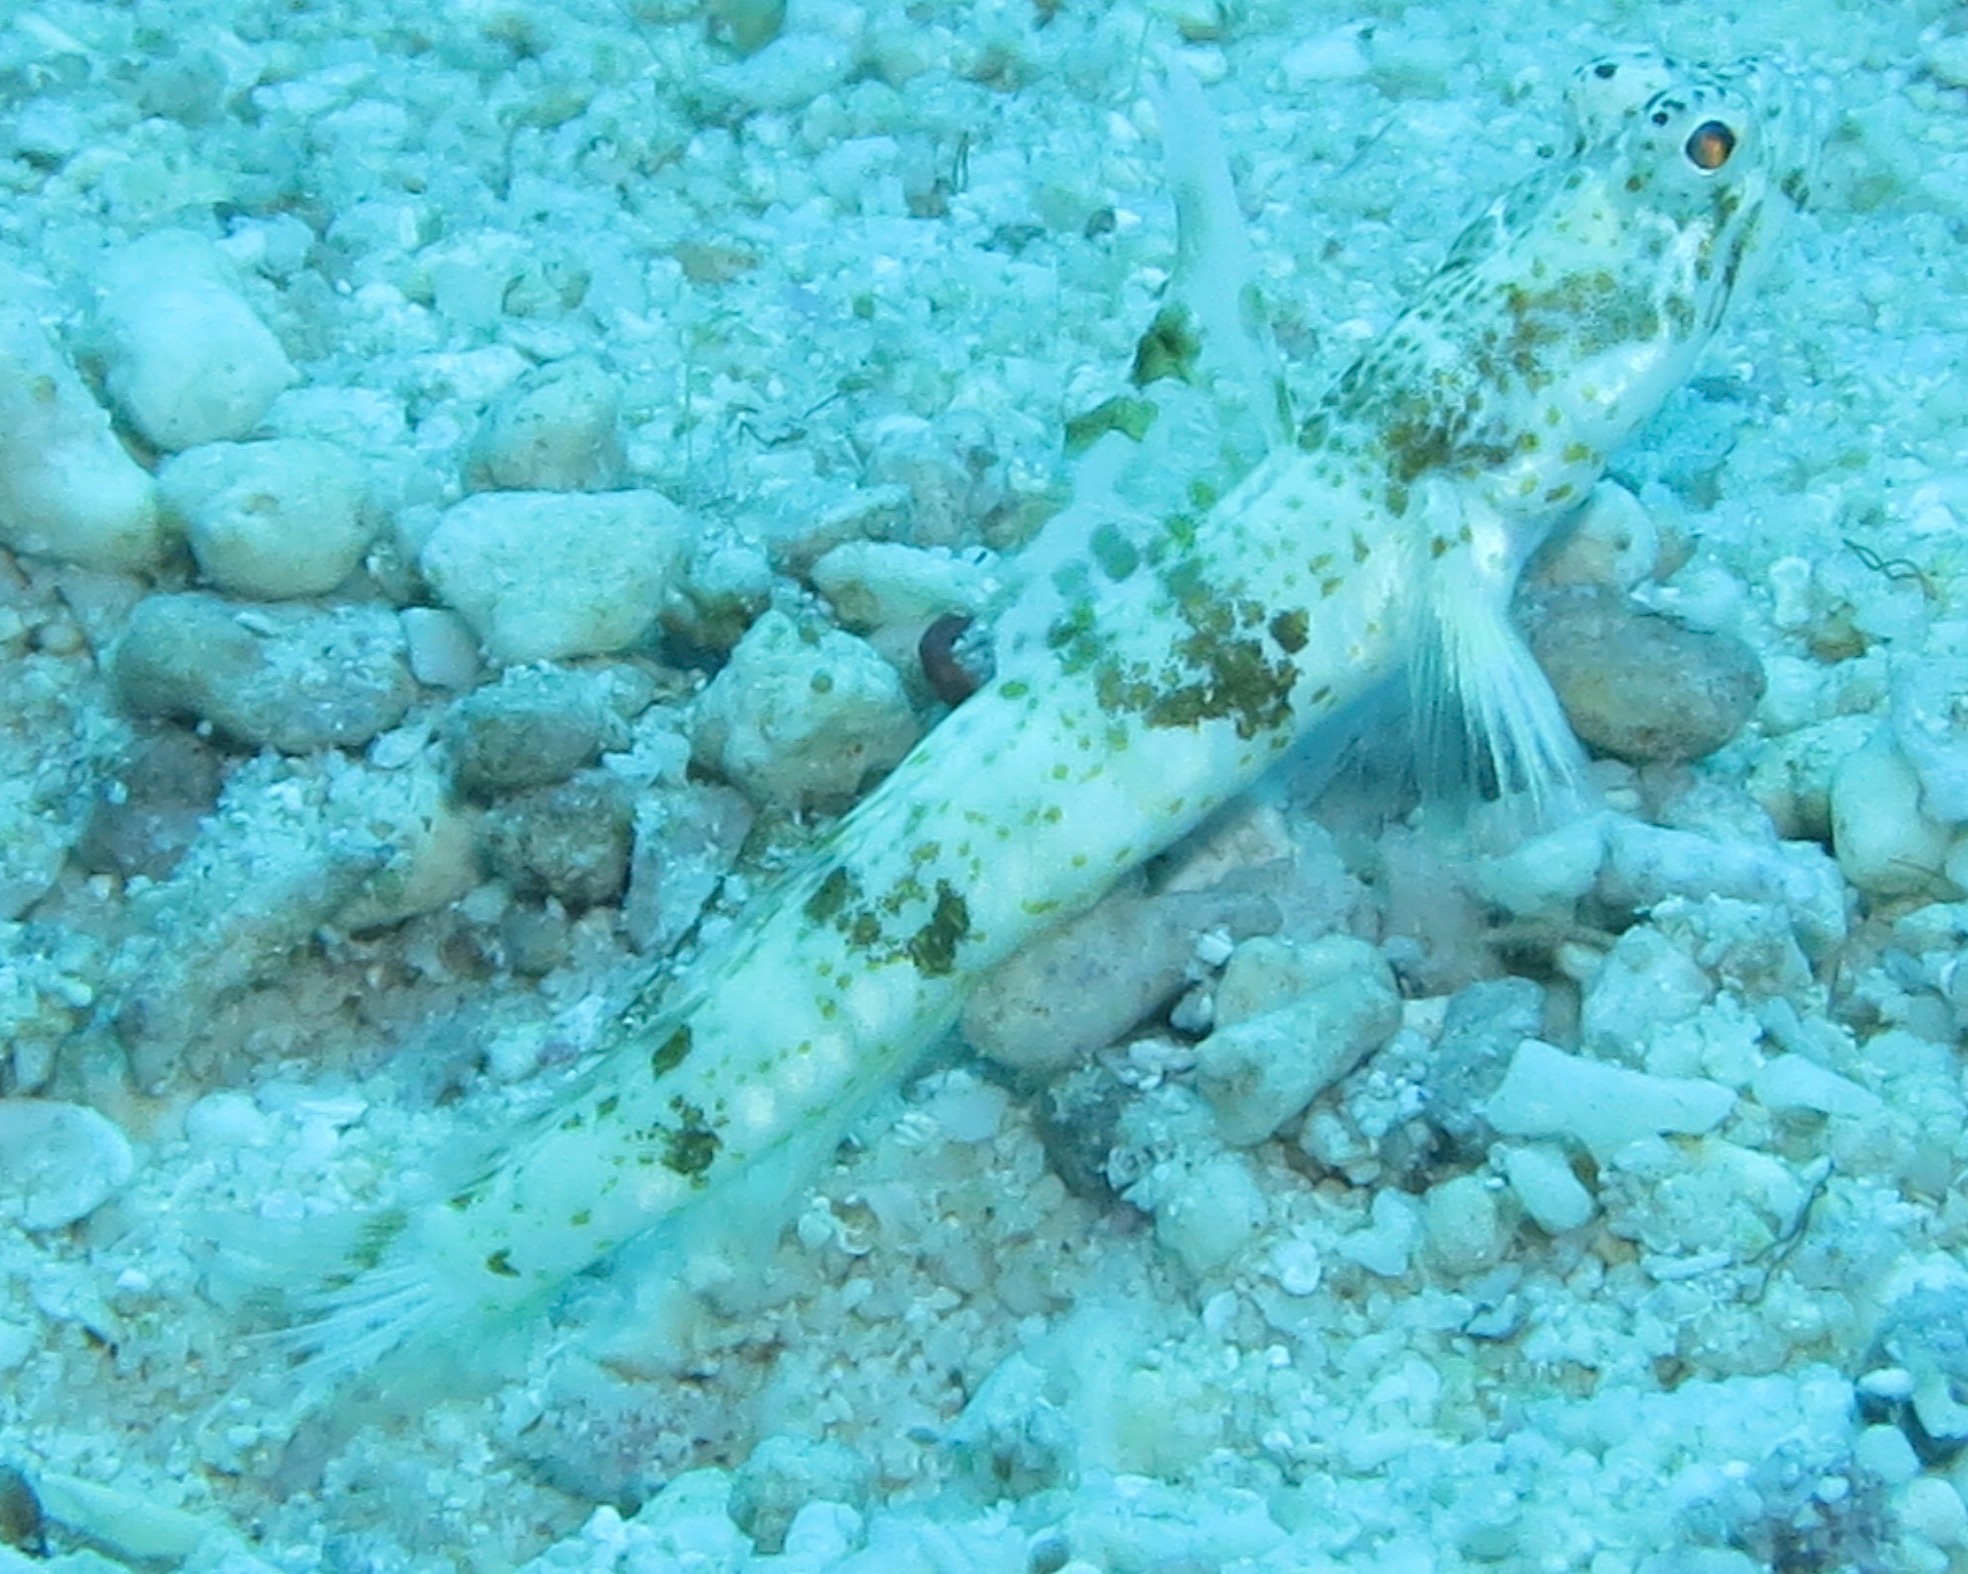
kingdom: Animalia
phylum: Chordata
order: Perciformes
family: Gobiidae
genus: Tomiyamichthys
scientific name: Tomiyamichthys alleni
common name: Allen's shrimpgoby
